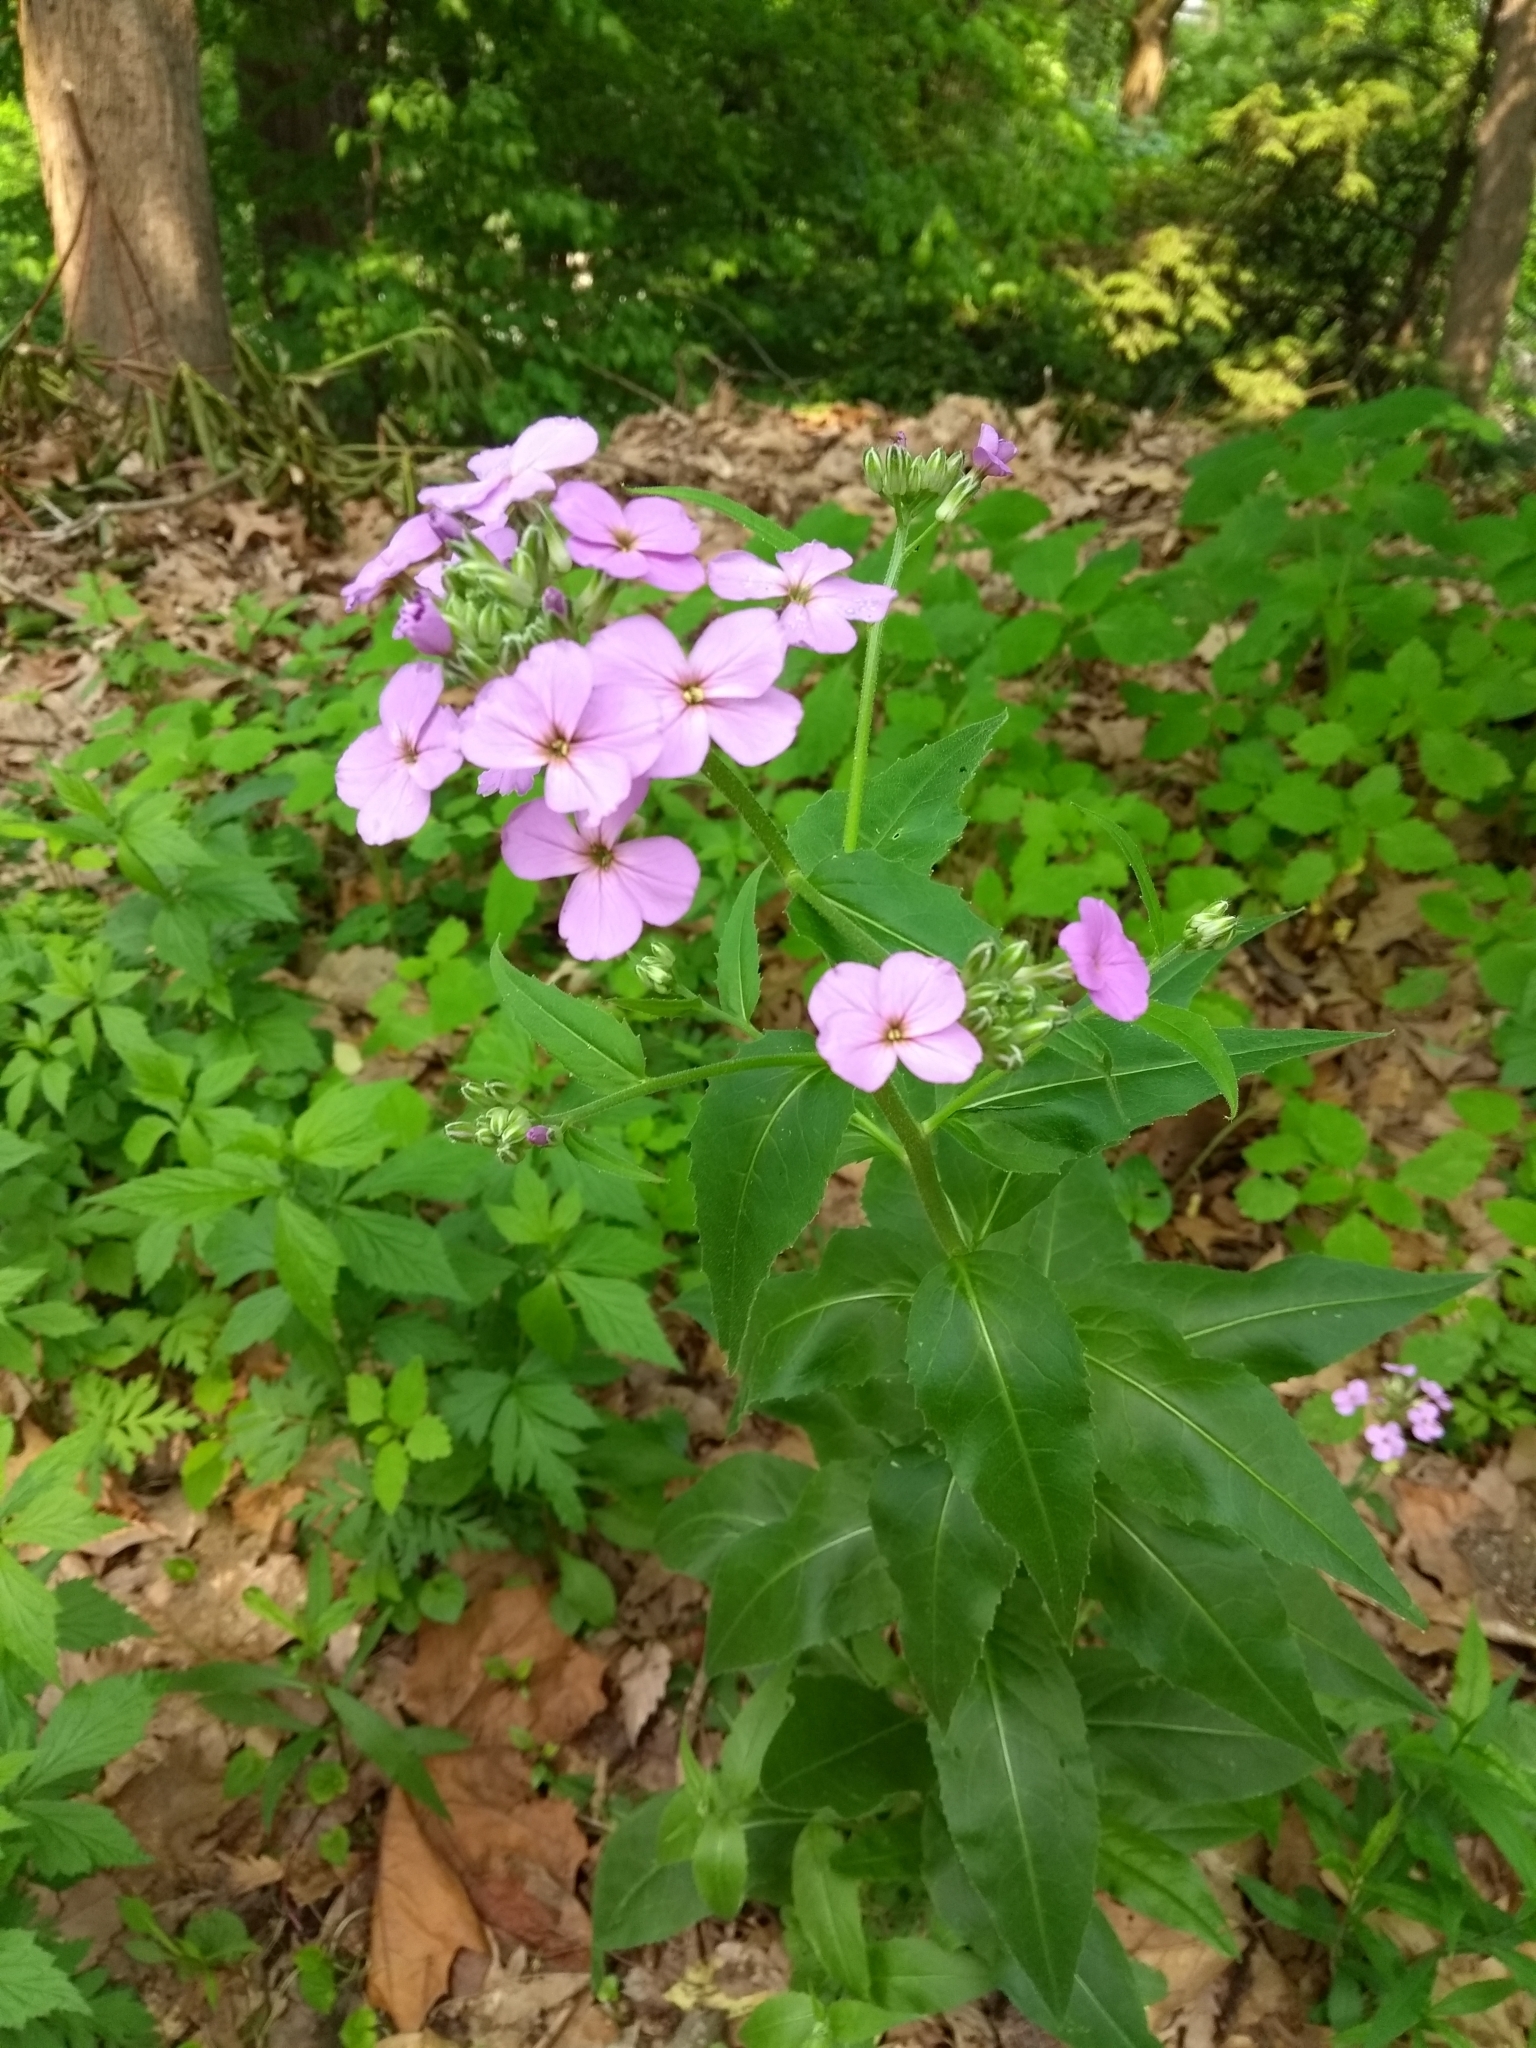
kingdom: Plantae
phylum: Tracheophyta
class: Magnoliopsida
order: Brassicales
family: Brassicaceae
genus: Hesperis
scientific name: Hesperis matronalis
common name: Dame's-violet
